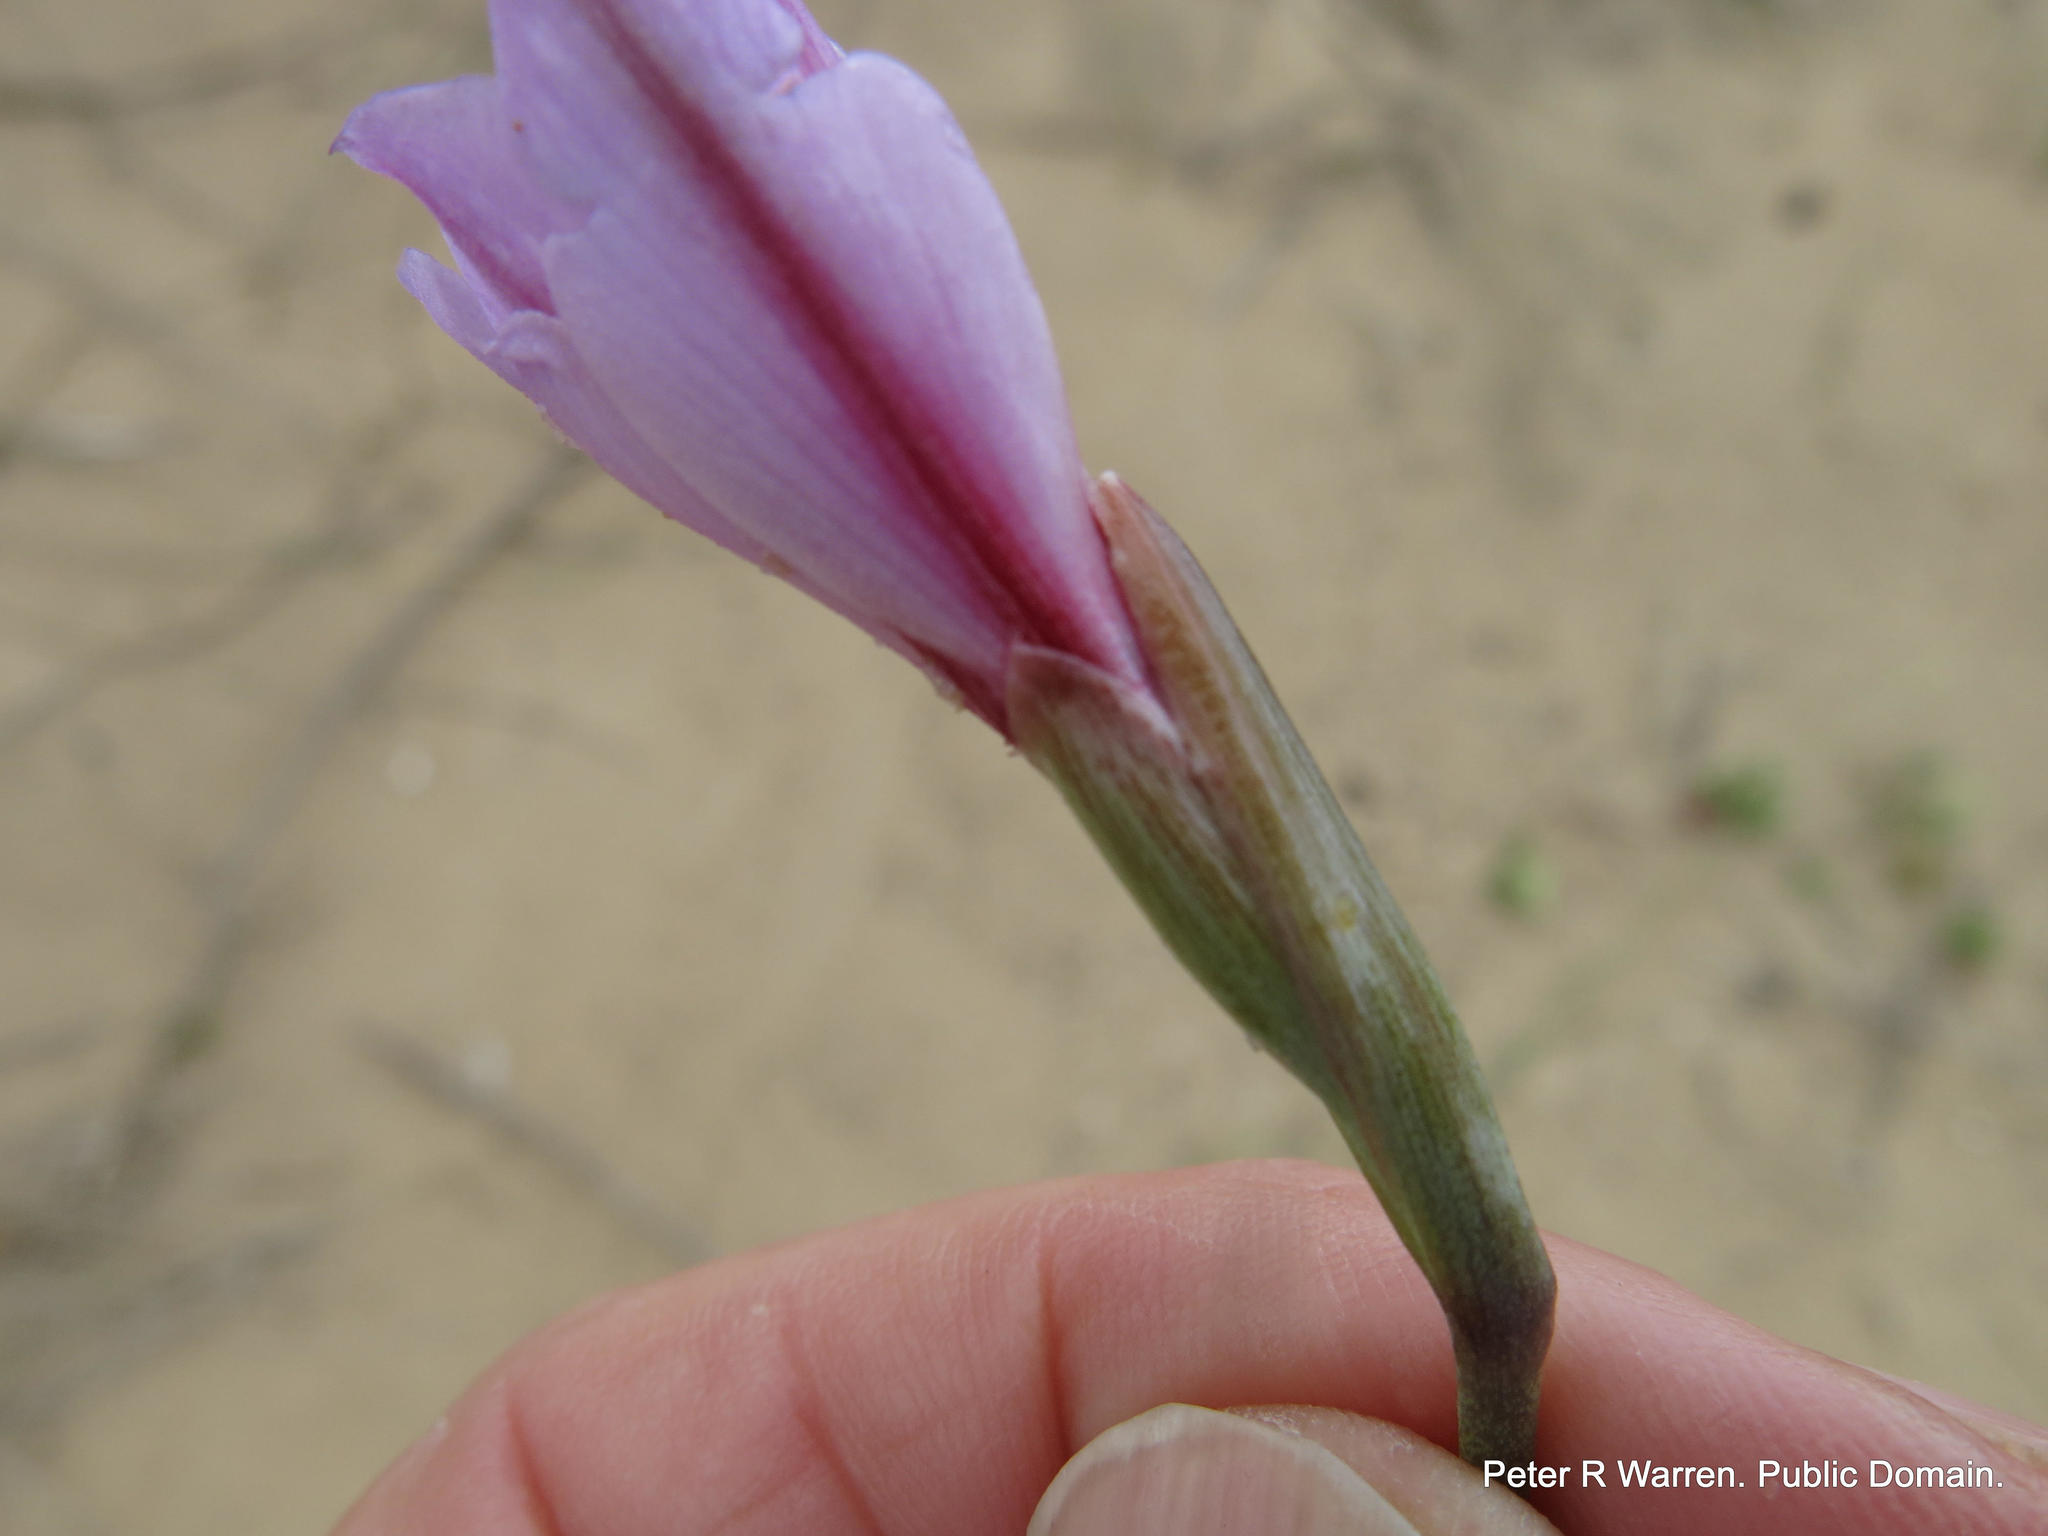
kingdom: Plantae
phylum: Tracheophyta
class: Liliopsida
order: Asparagales
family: Iridaceae
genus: Gladiolus
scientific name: Gladiolus gueinzii
